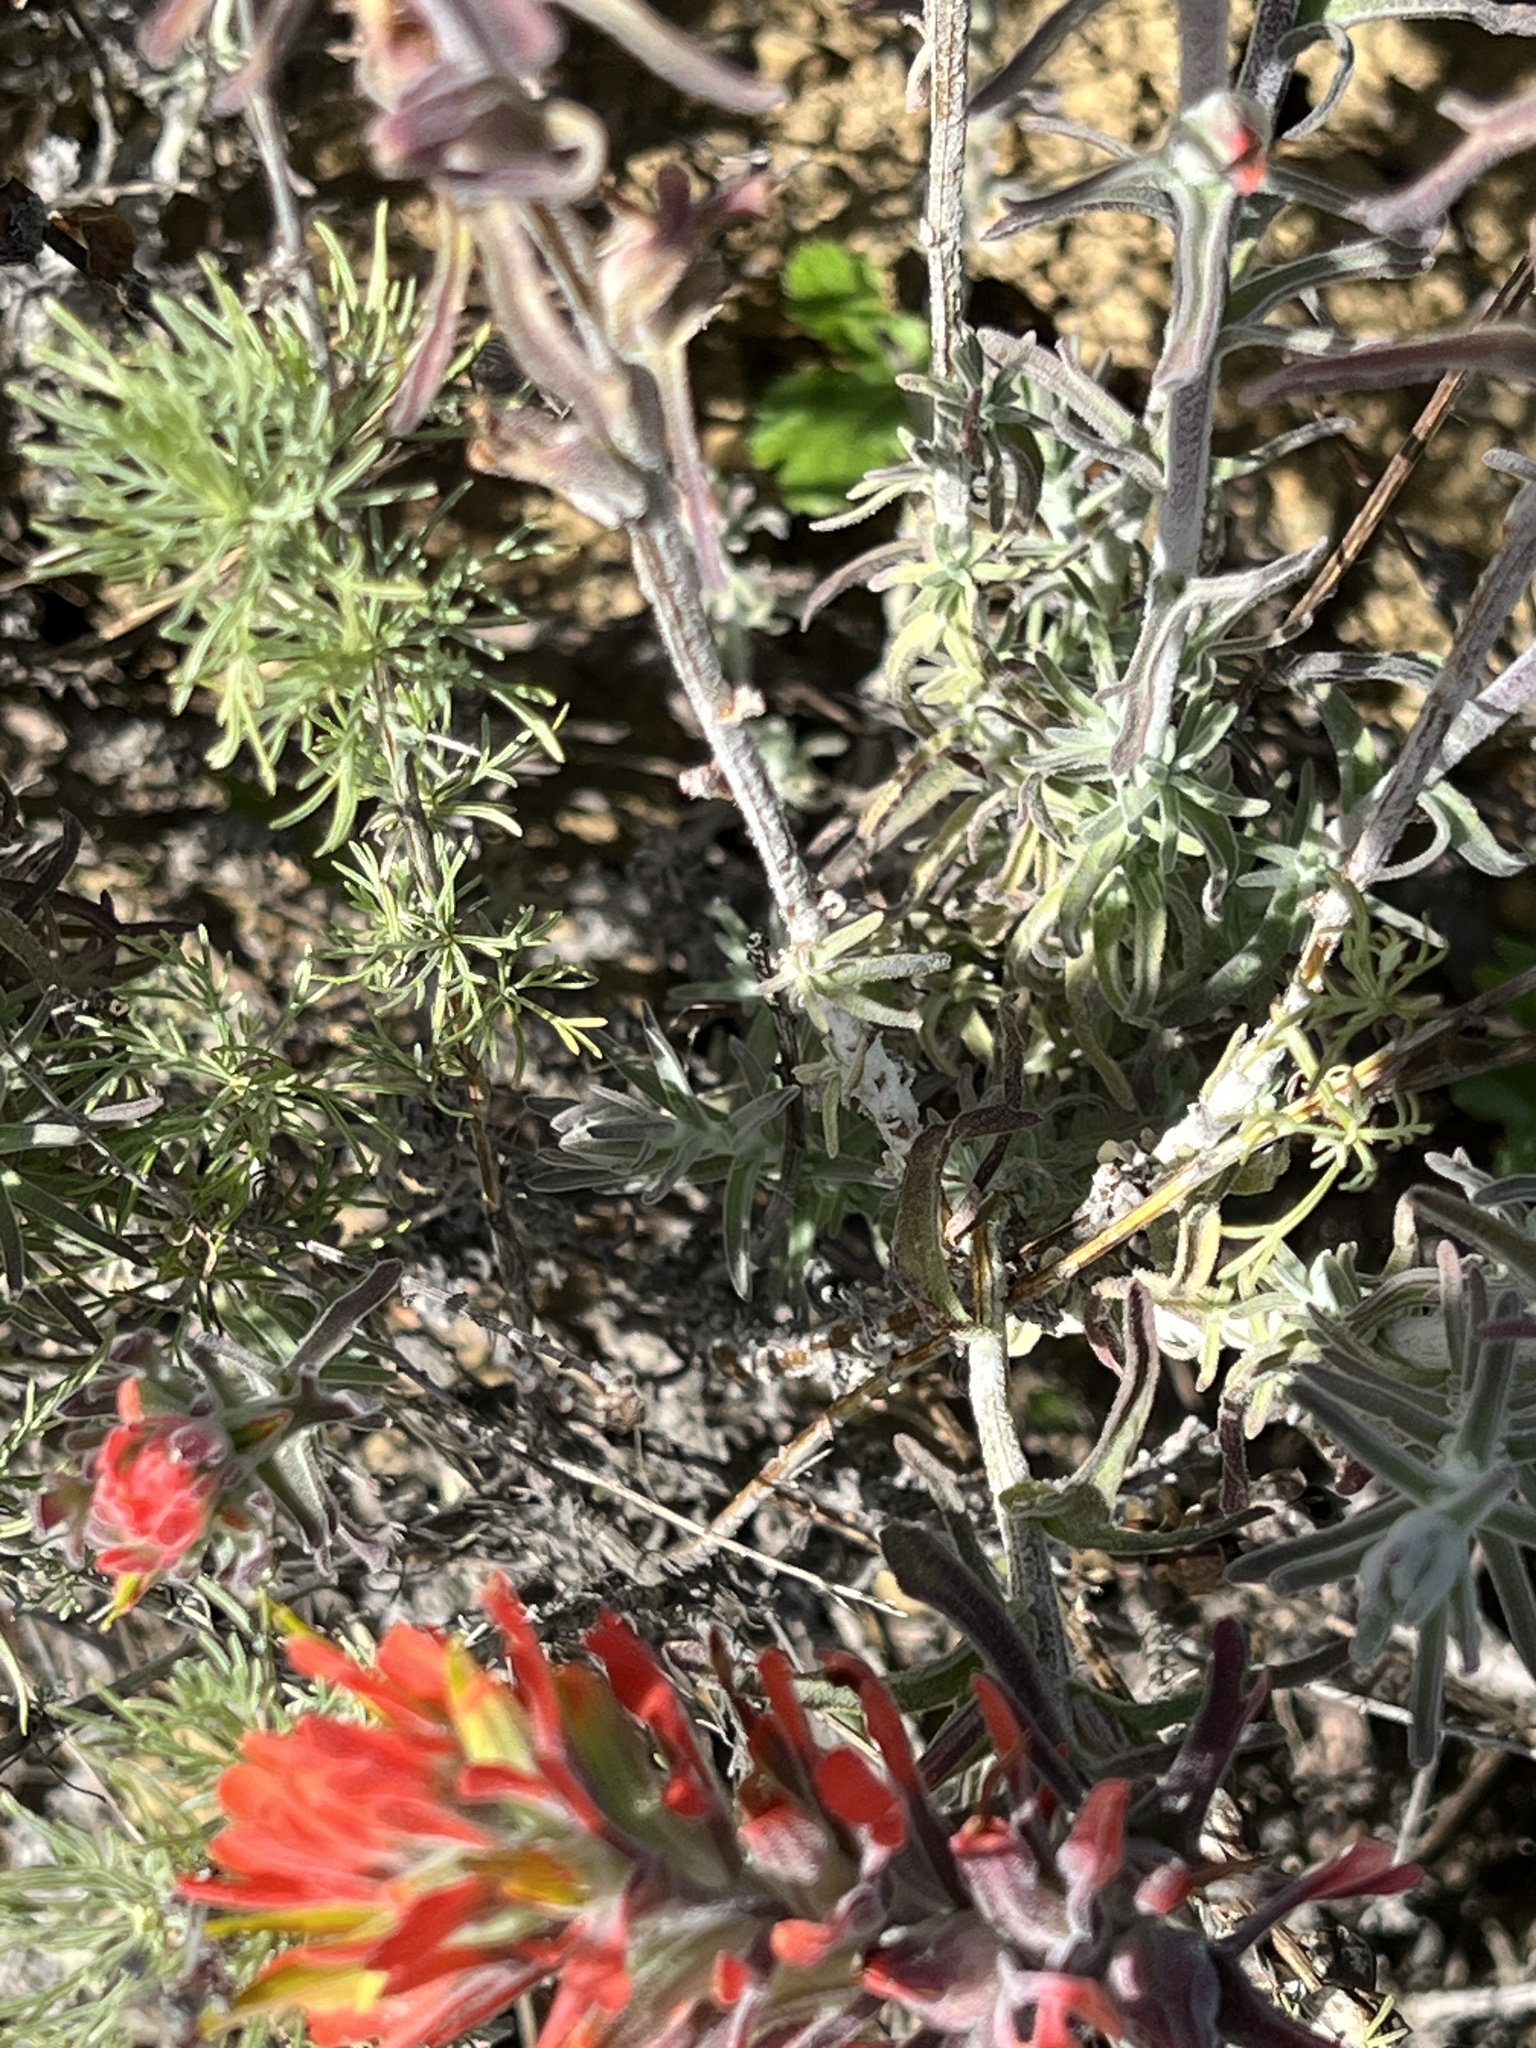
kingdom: Plantae
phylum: Tracheophyta
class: Magnoliopsida
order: Lamiales
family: Orobanchaceae
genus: Castilleja
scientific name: Castilleja foliolosa
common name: Woolly indian paintbrush
